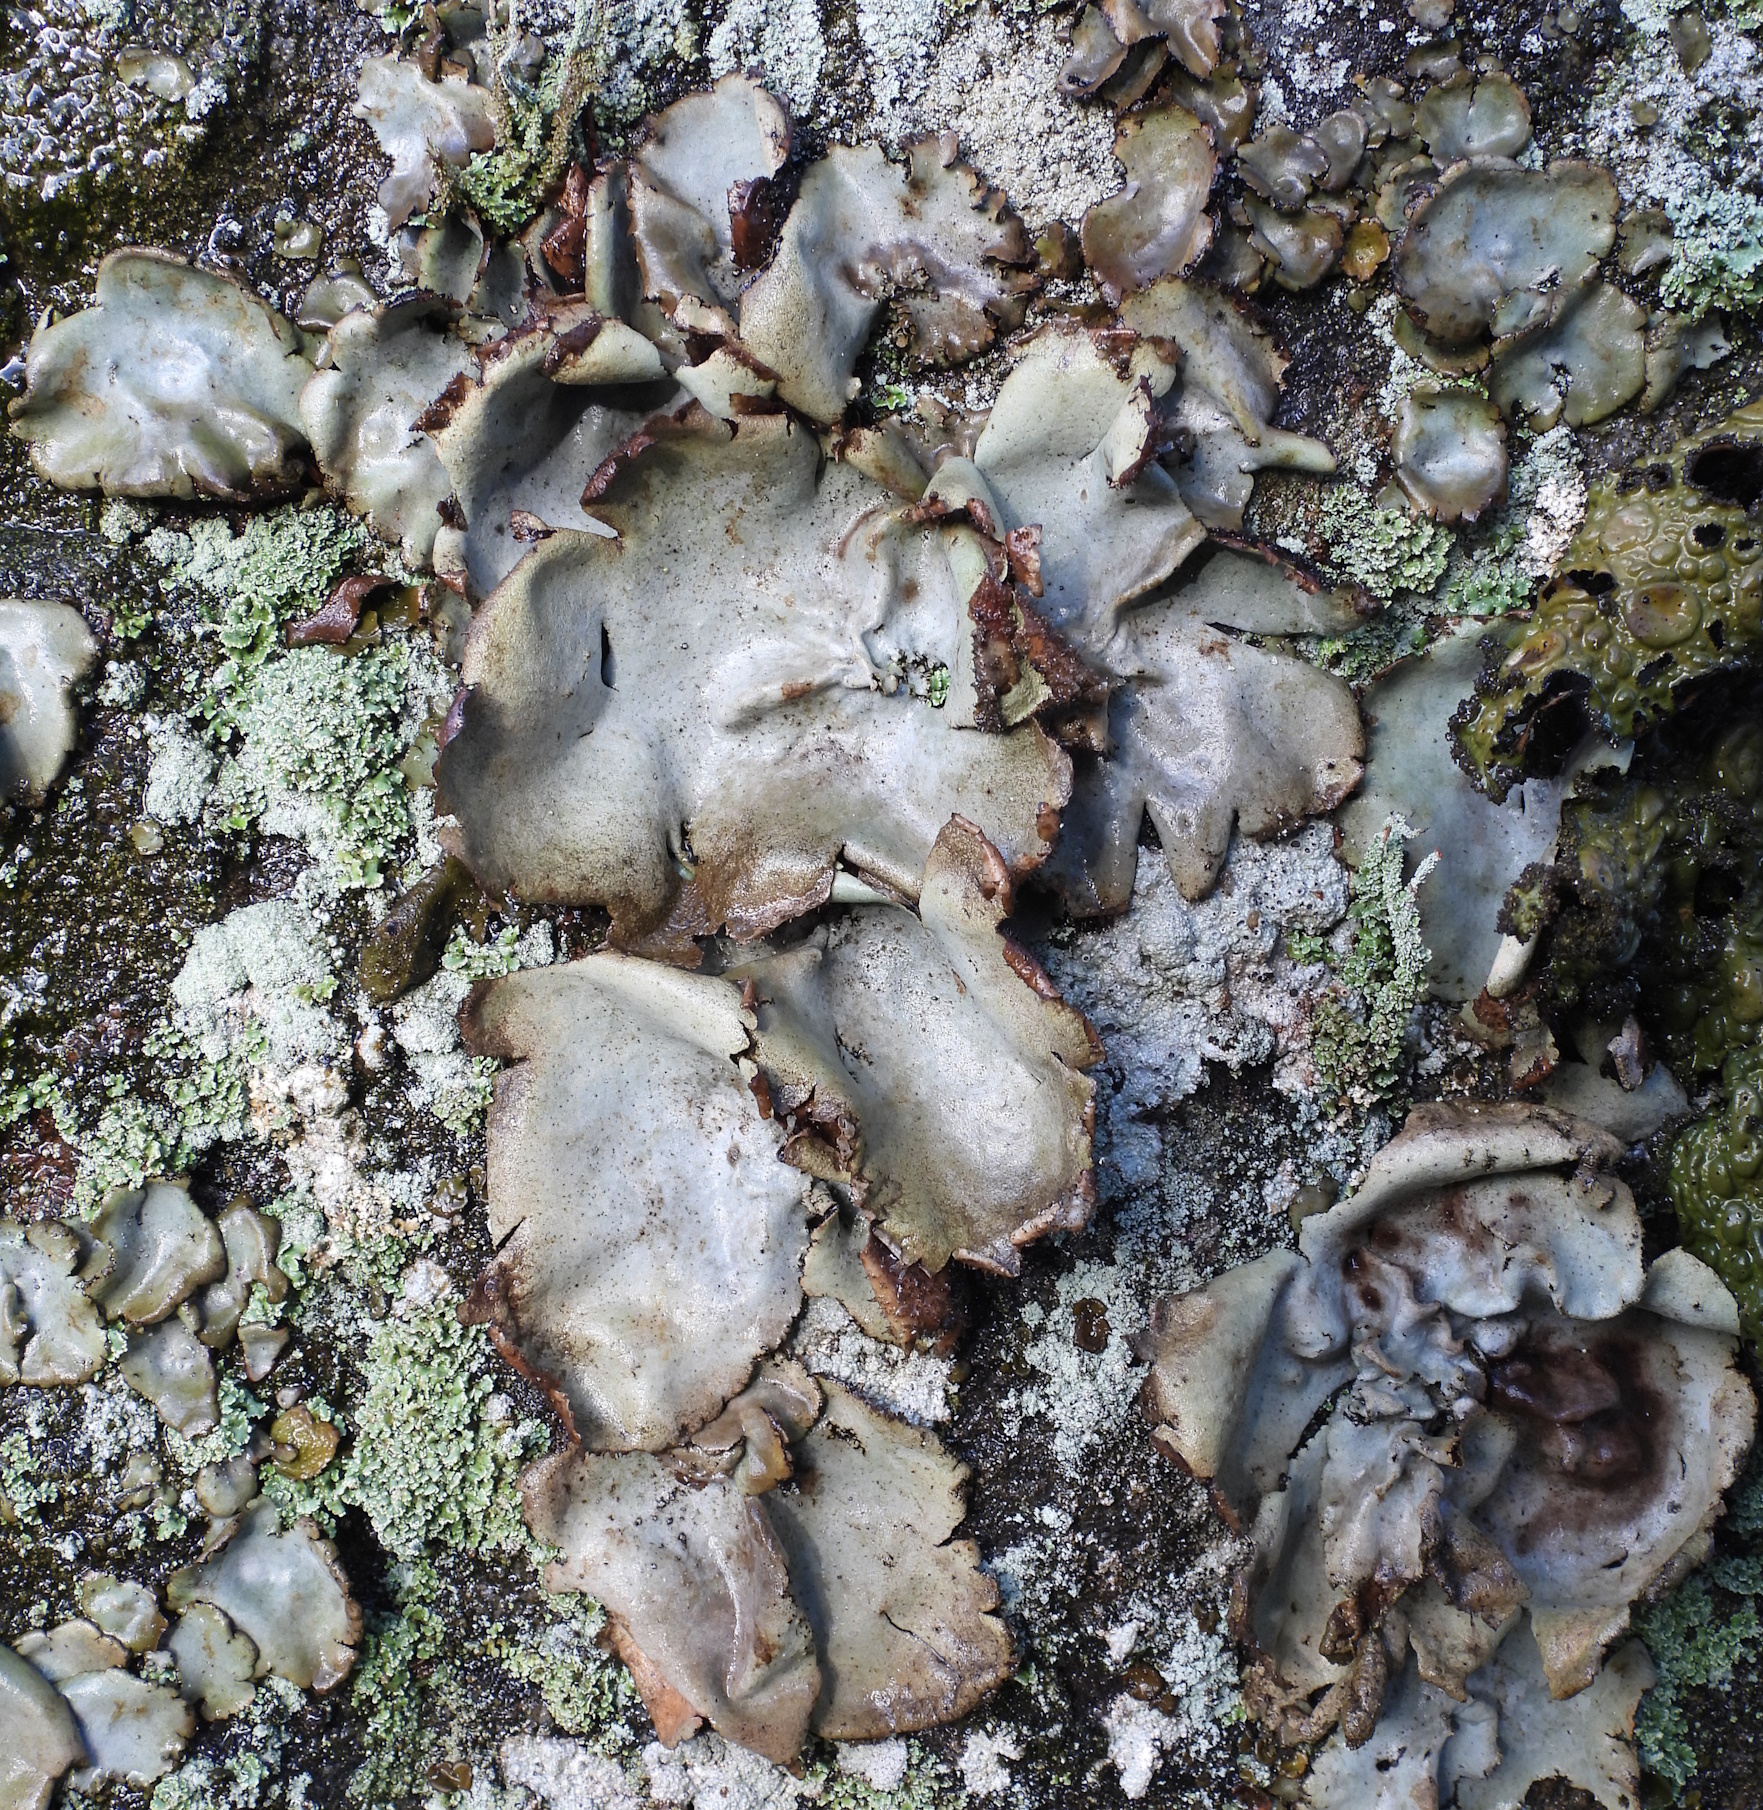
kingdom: Fungi
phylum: Ascomycota
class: Lecanoromycetes
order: Umbilicariales
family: Umbilicariaceae
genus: Umbilicaria
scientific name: Umbilicaria hirsuta
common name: Granulating rocktripe lichen
